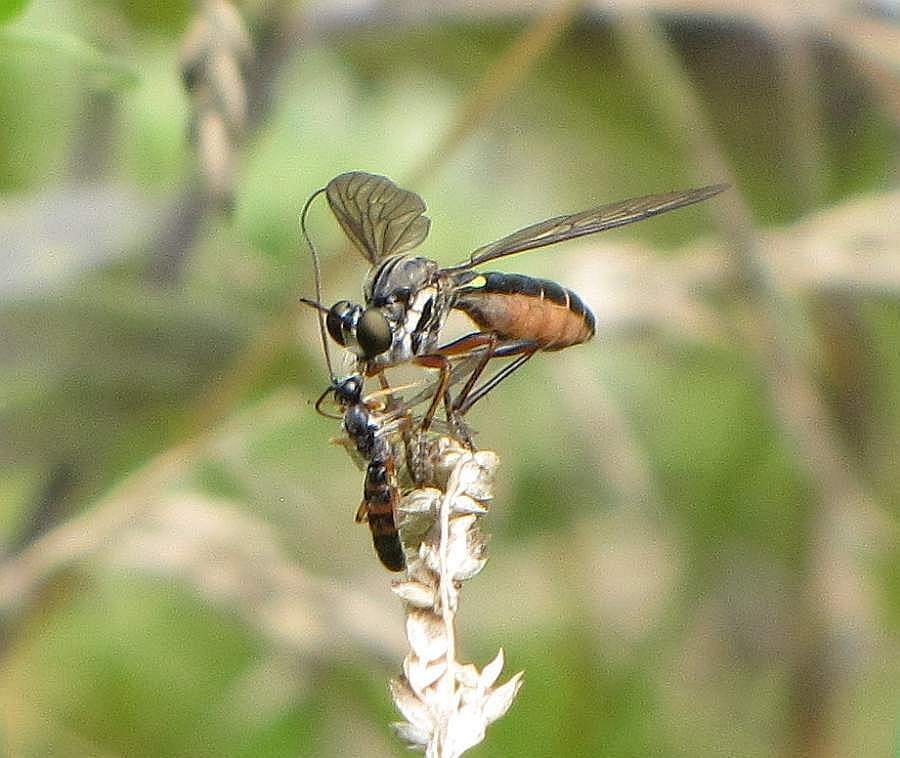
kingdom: Animalia
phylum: Arthropoda
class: Insecta
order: Diptera
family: Asilidae
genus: Dioctria
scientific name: Dioctria hyalipennis
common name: Stripe-legged robberfly
